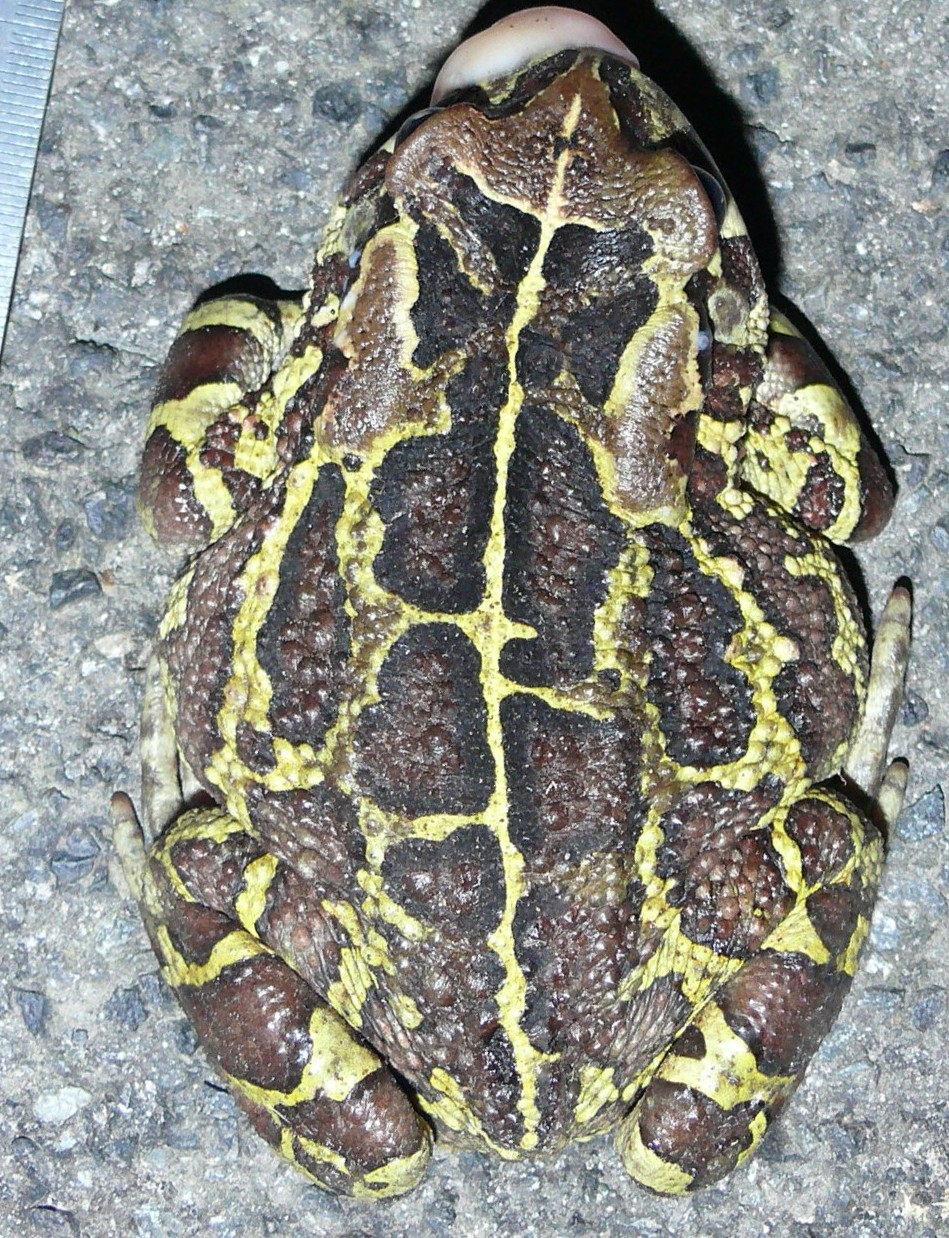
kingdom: Animalia
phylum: Chordata
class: Amphibia
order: Anura
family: Bufonidae
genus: Sclerophrys
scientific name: Sclerophrys pantherina
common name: Panther toad
